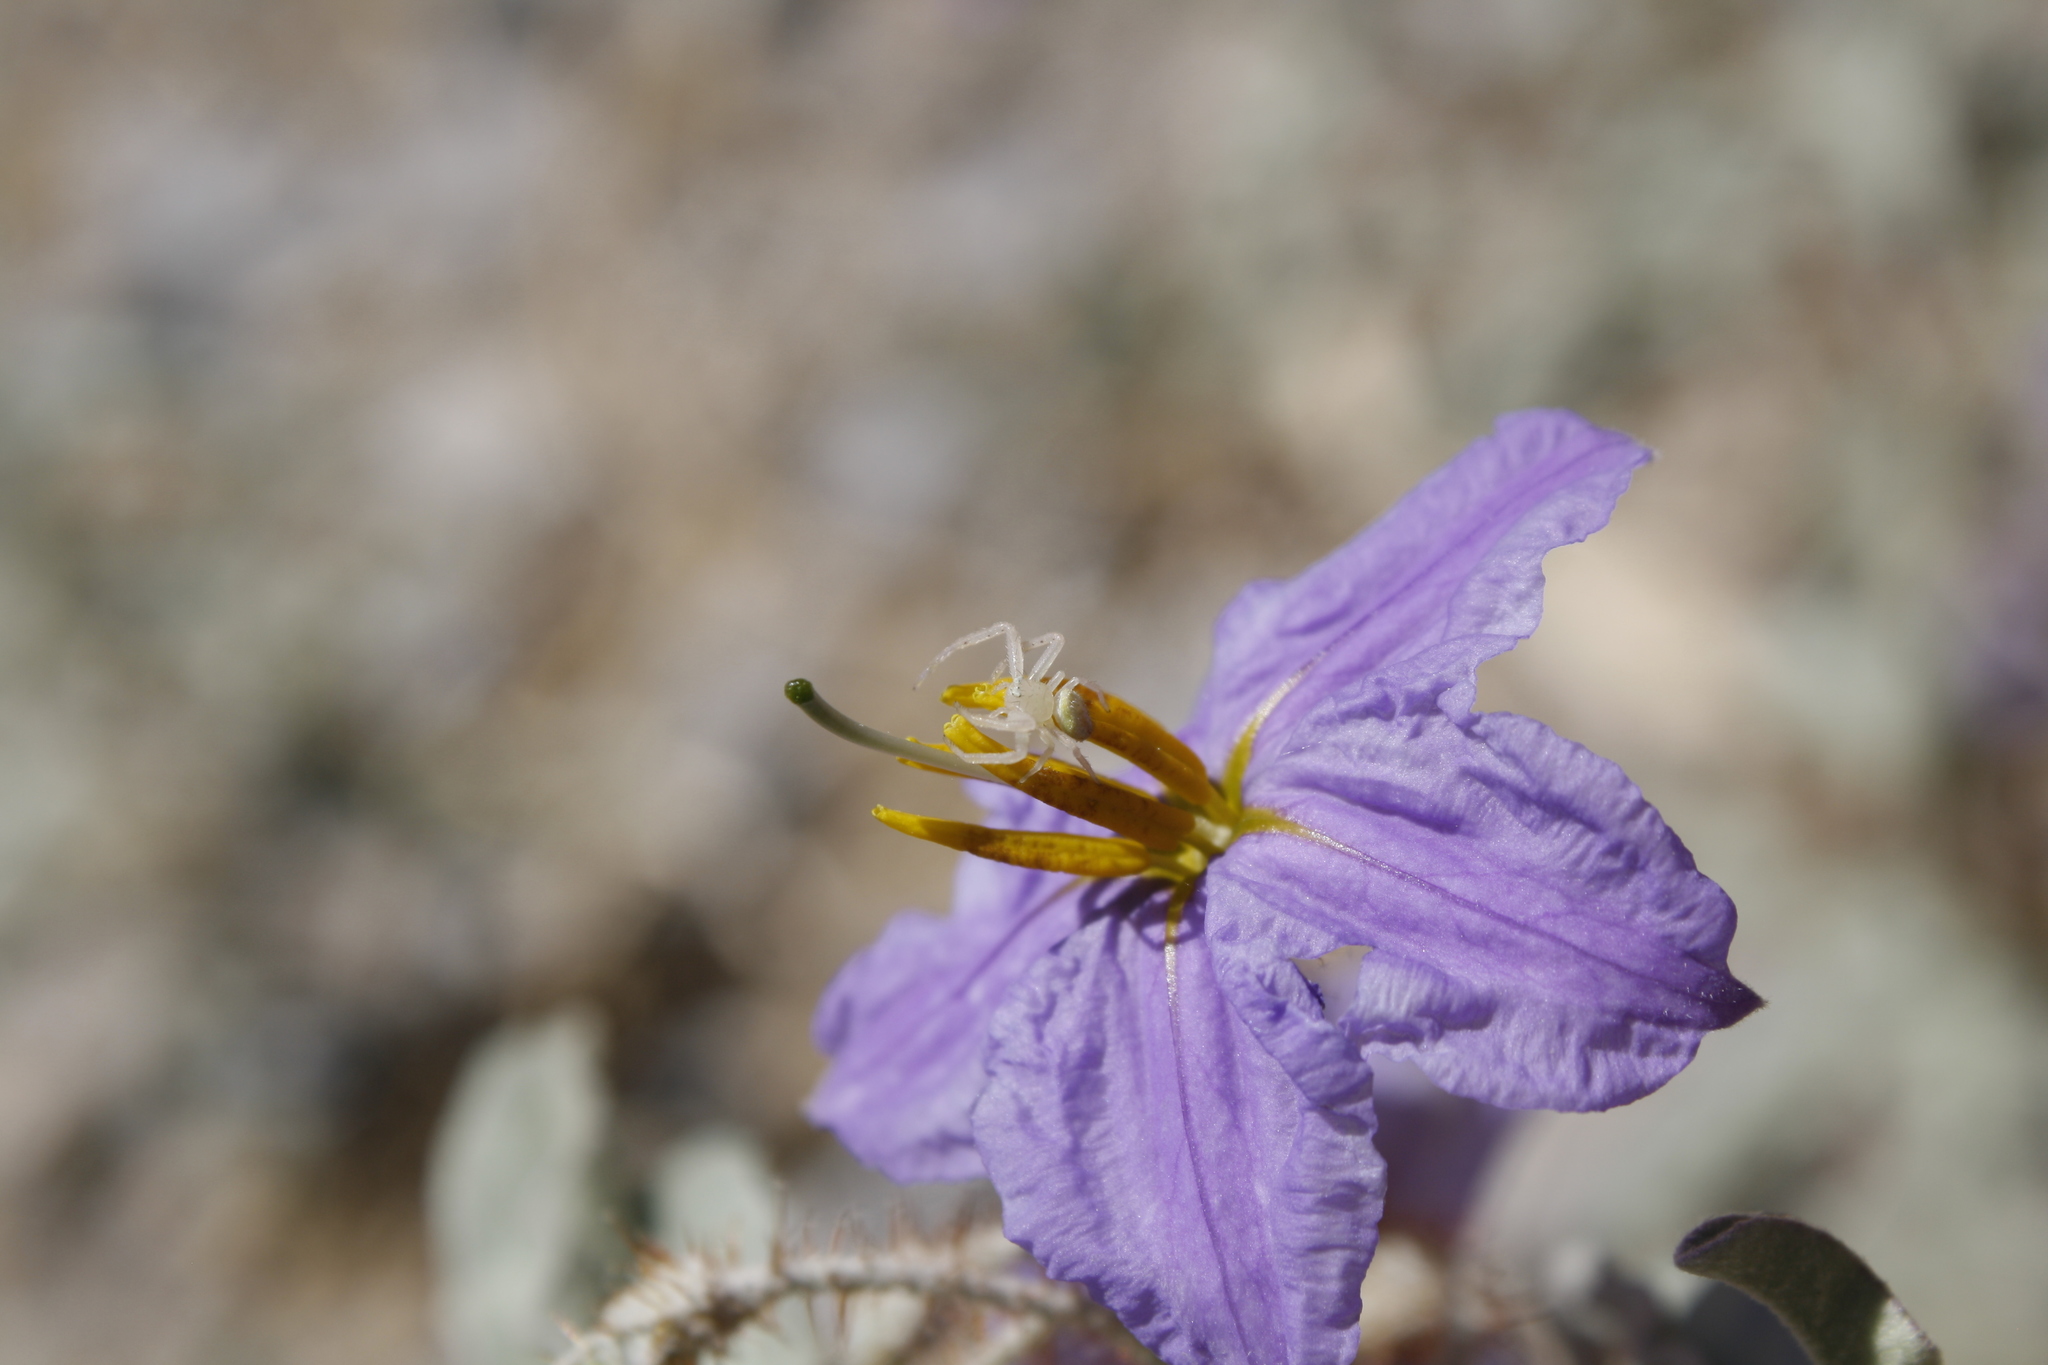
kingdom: Animalia
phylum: Arthropoda
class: Arachnida
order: Araneae
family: Thomisidae
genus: Misumena
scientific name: Misumena vatia
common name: Goldenrod crab spider
